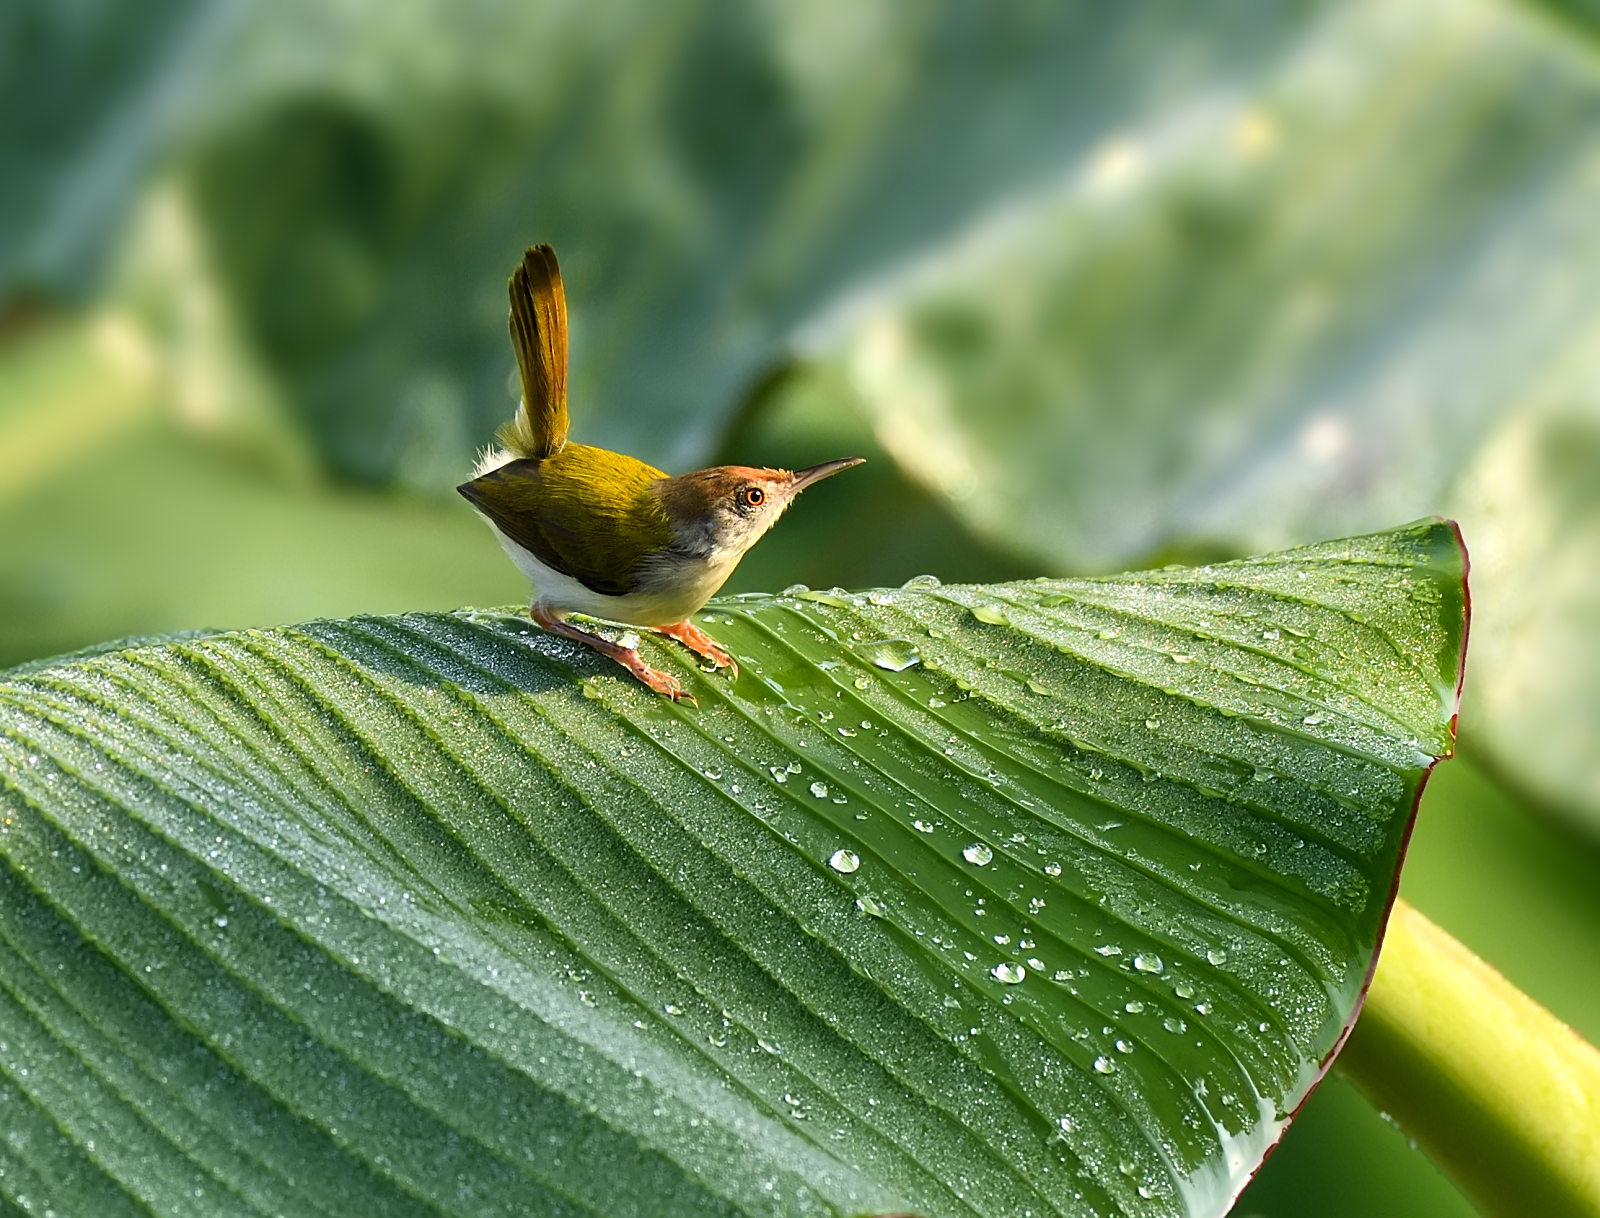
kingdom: Animalia
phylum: Chordata
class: Aves
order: Passeriformes
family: Cisticolidae
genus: Orthotomus
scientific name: Orthotomus sutorius
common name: Common tailorbird
